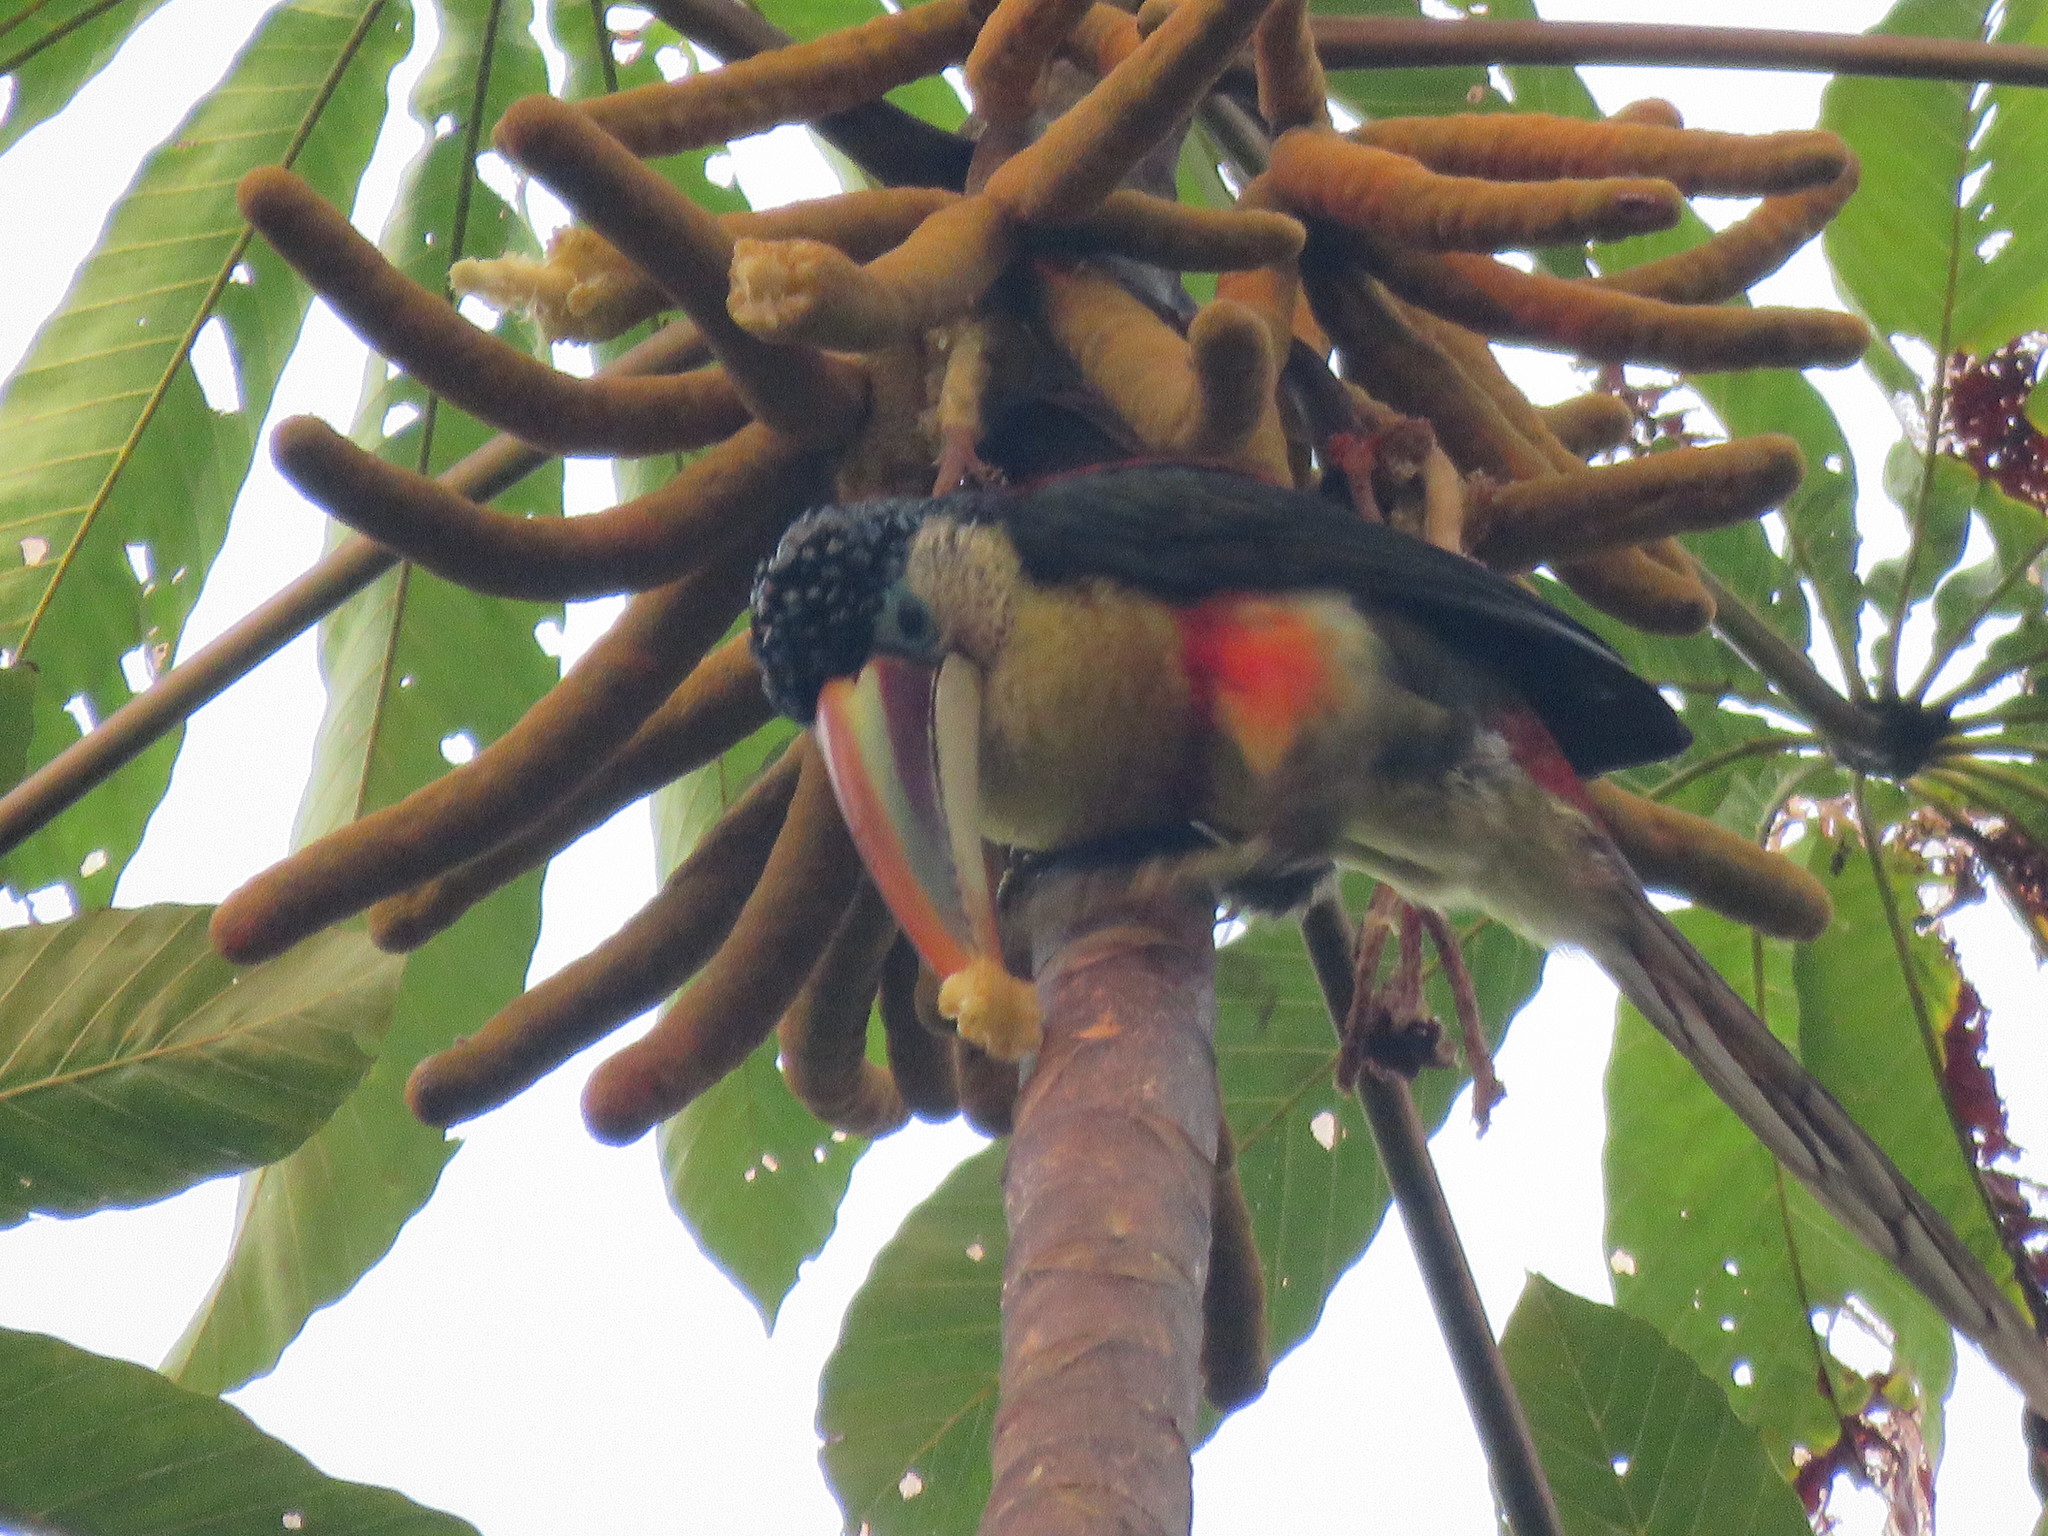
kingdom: Animalia
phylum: Chordata
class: Aves
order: Piciformes
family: Ramphastidae
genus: Pteroglossus
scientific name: Pteroglossus beauharnaisii
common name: Curl-crested aracari
